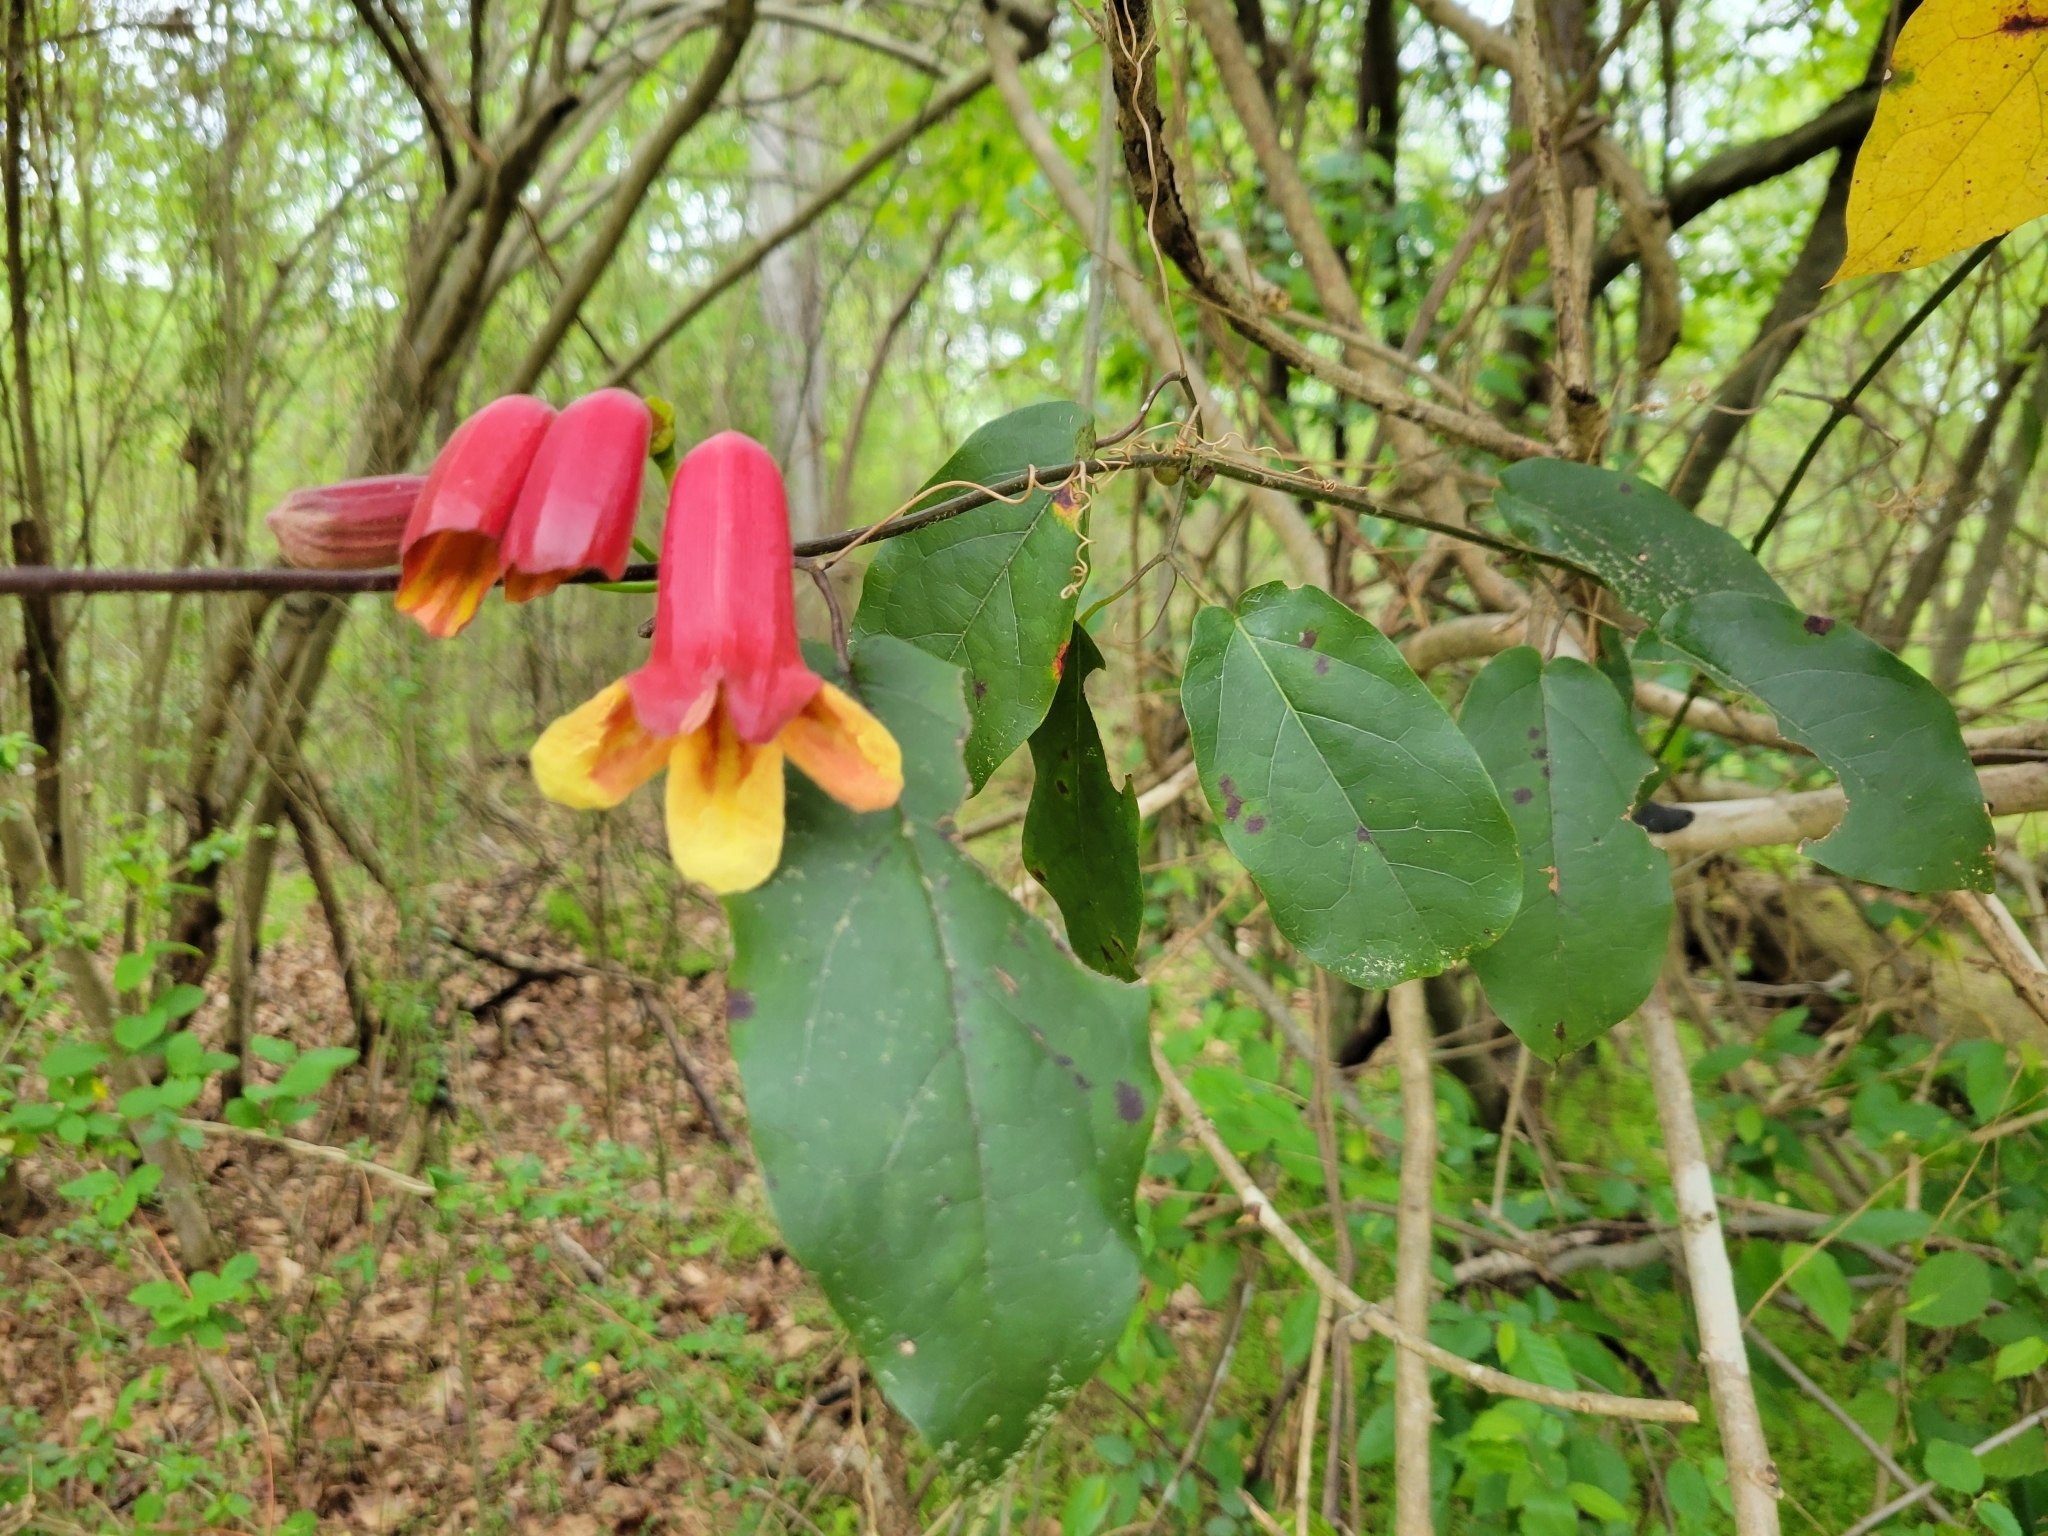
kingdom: Plantae
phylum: Tracheophyta
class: Magnoliopsida
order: Lamiales
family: Bignoniaceae
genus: Bignonia
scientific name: Bignonia capreolata
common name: Crossvine
